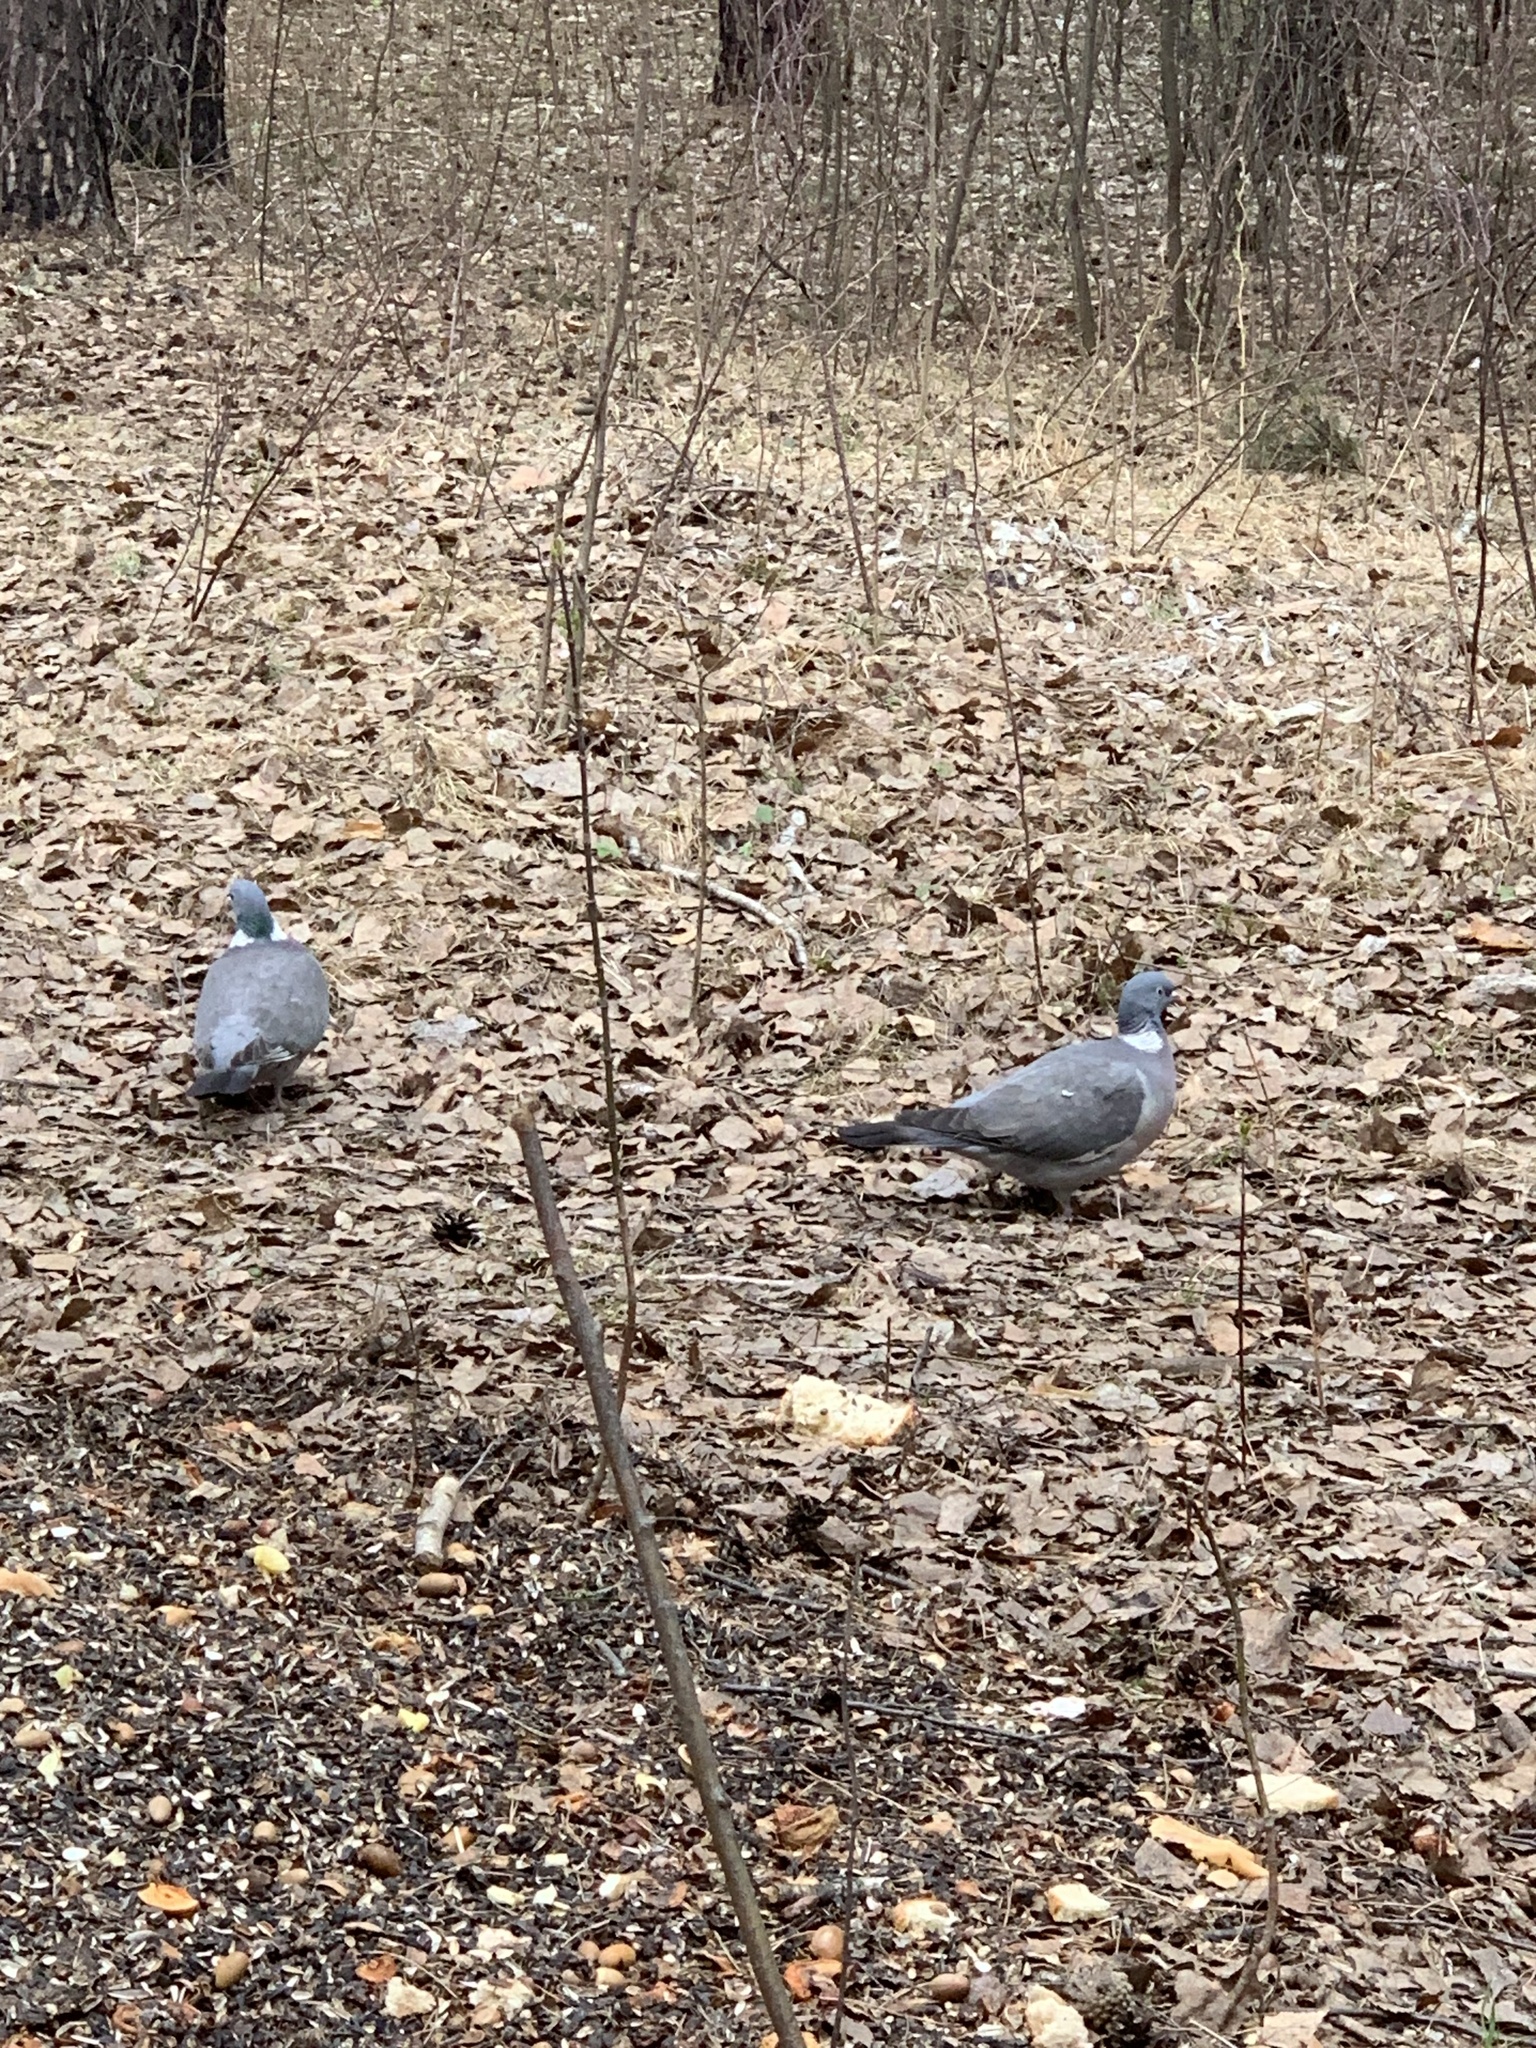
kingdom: Animalia
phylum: Chordata
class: Aves
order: Columbiformes
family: Columbidae
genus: Columba
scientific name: Columba palumbus
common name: Common wood pigeon
